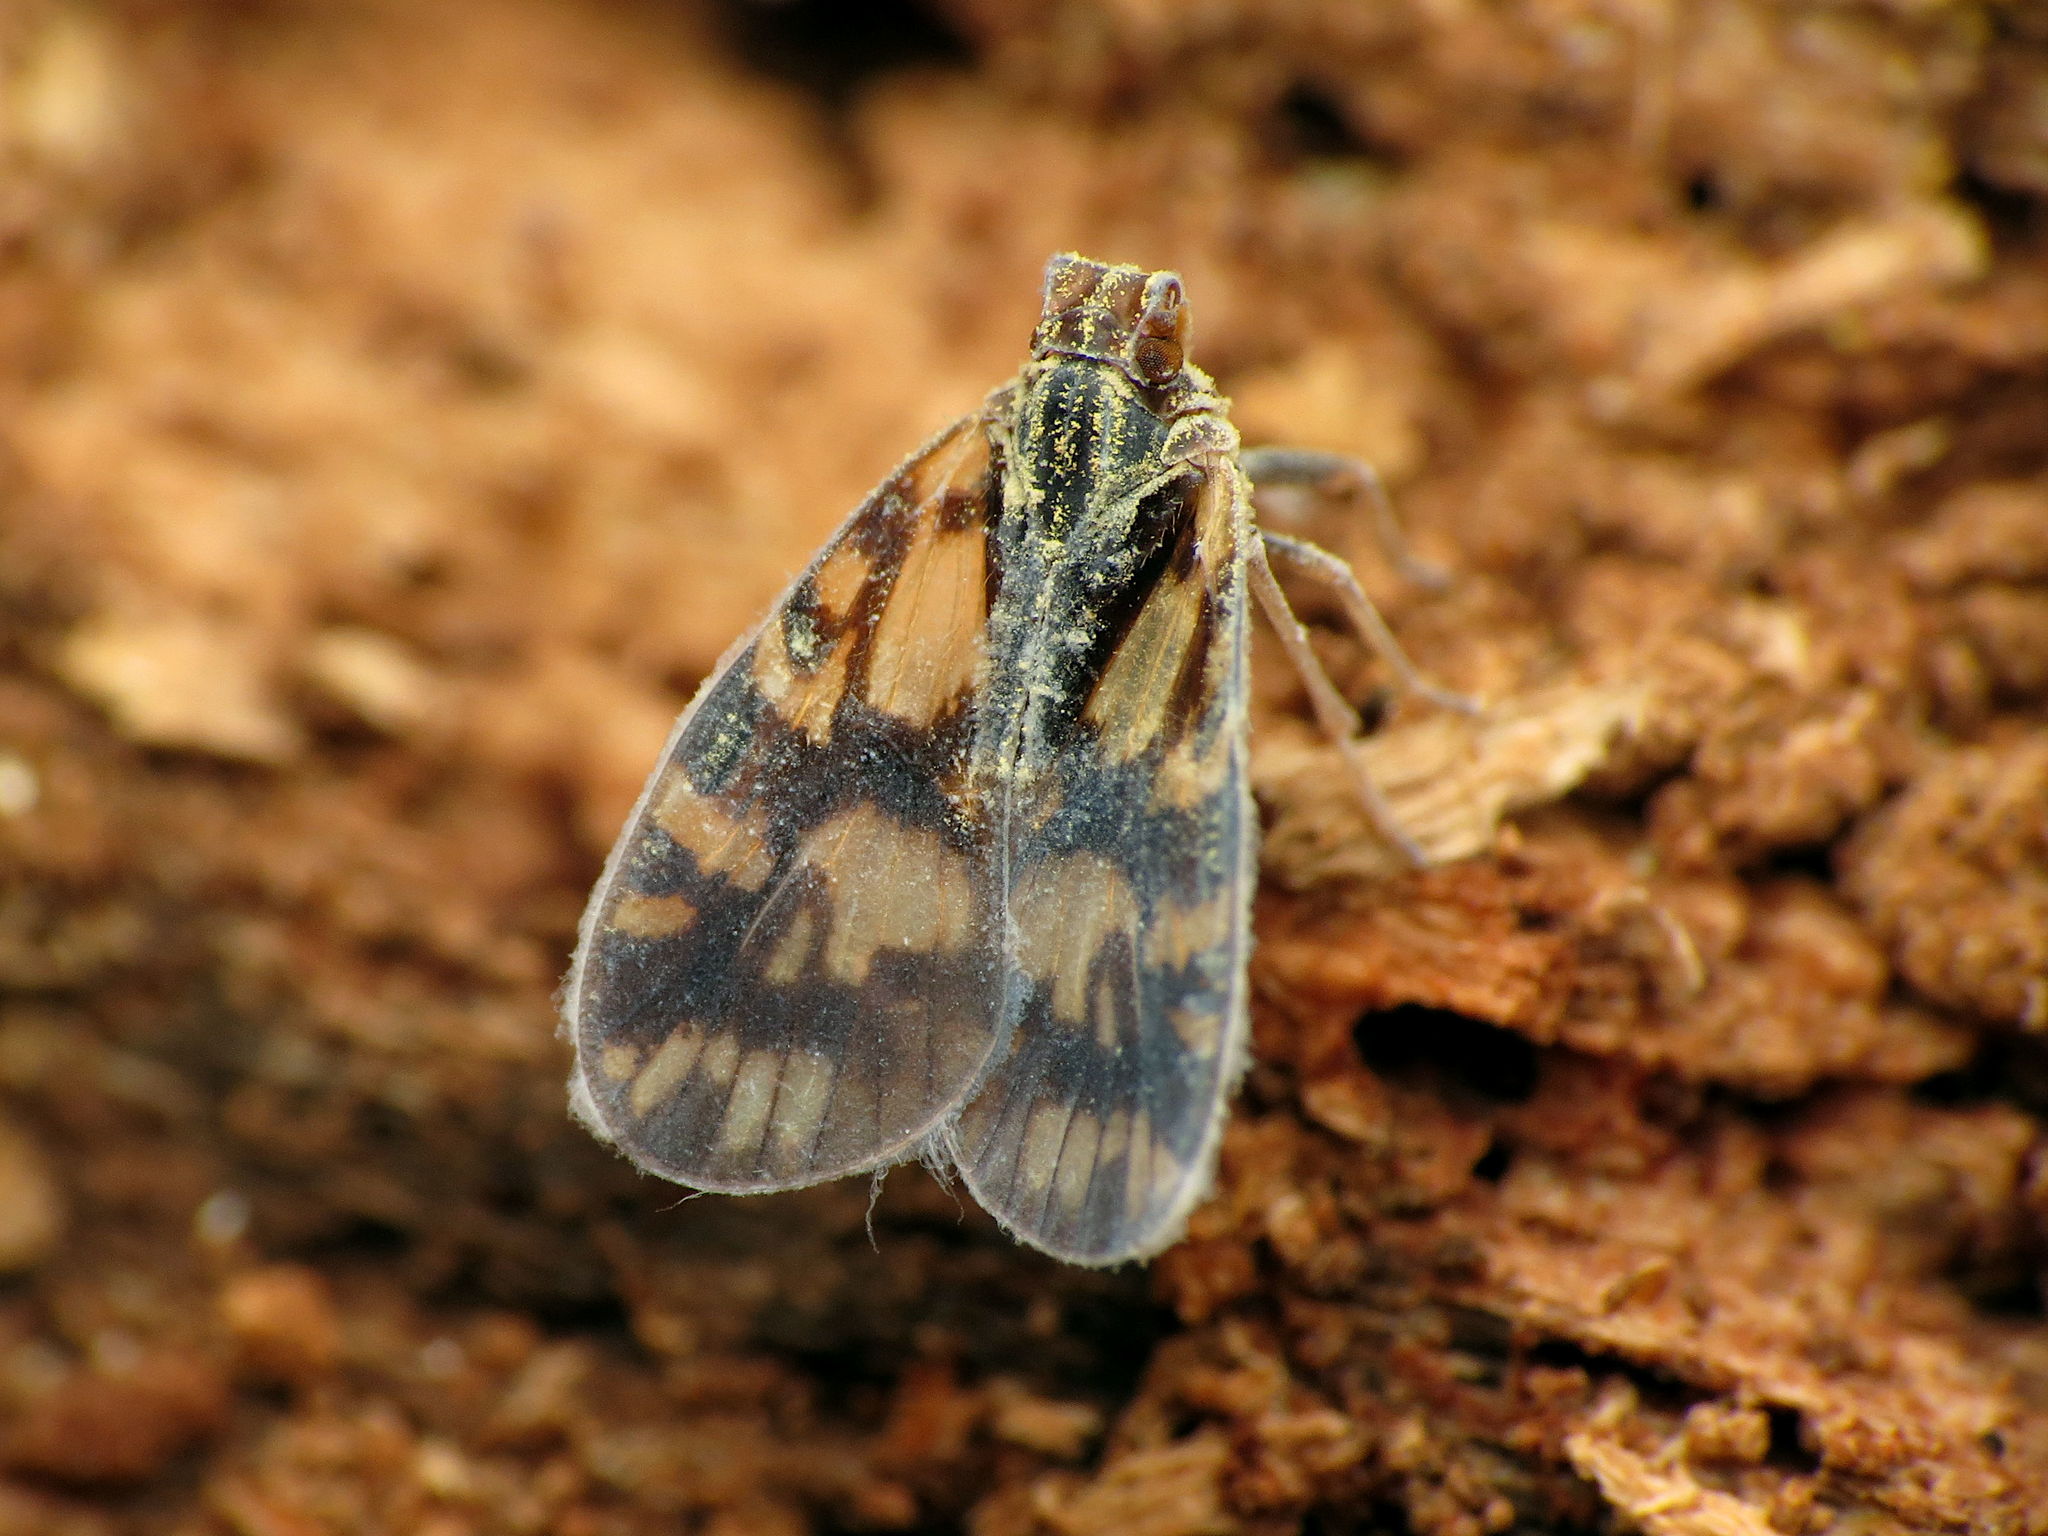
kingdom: Animalia
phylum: Arthropoda
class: Insecta
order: Hemiptera
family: Cixiidae
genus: Bothriocera
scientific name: Bothriocera cognita
